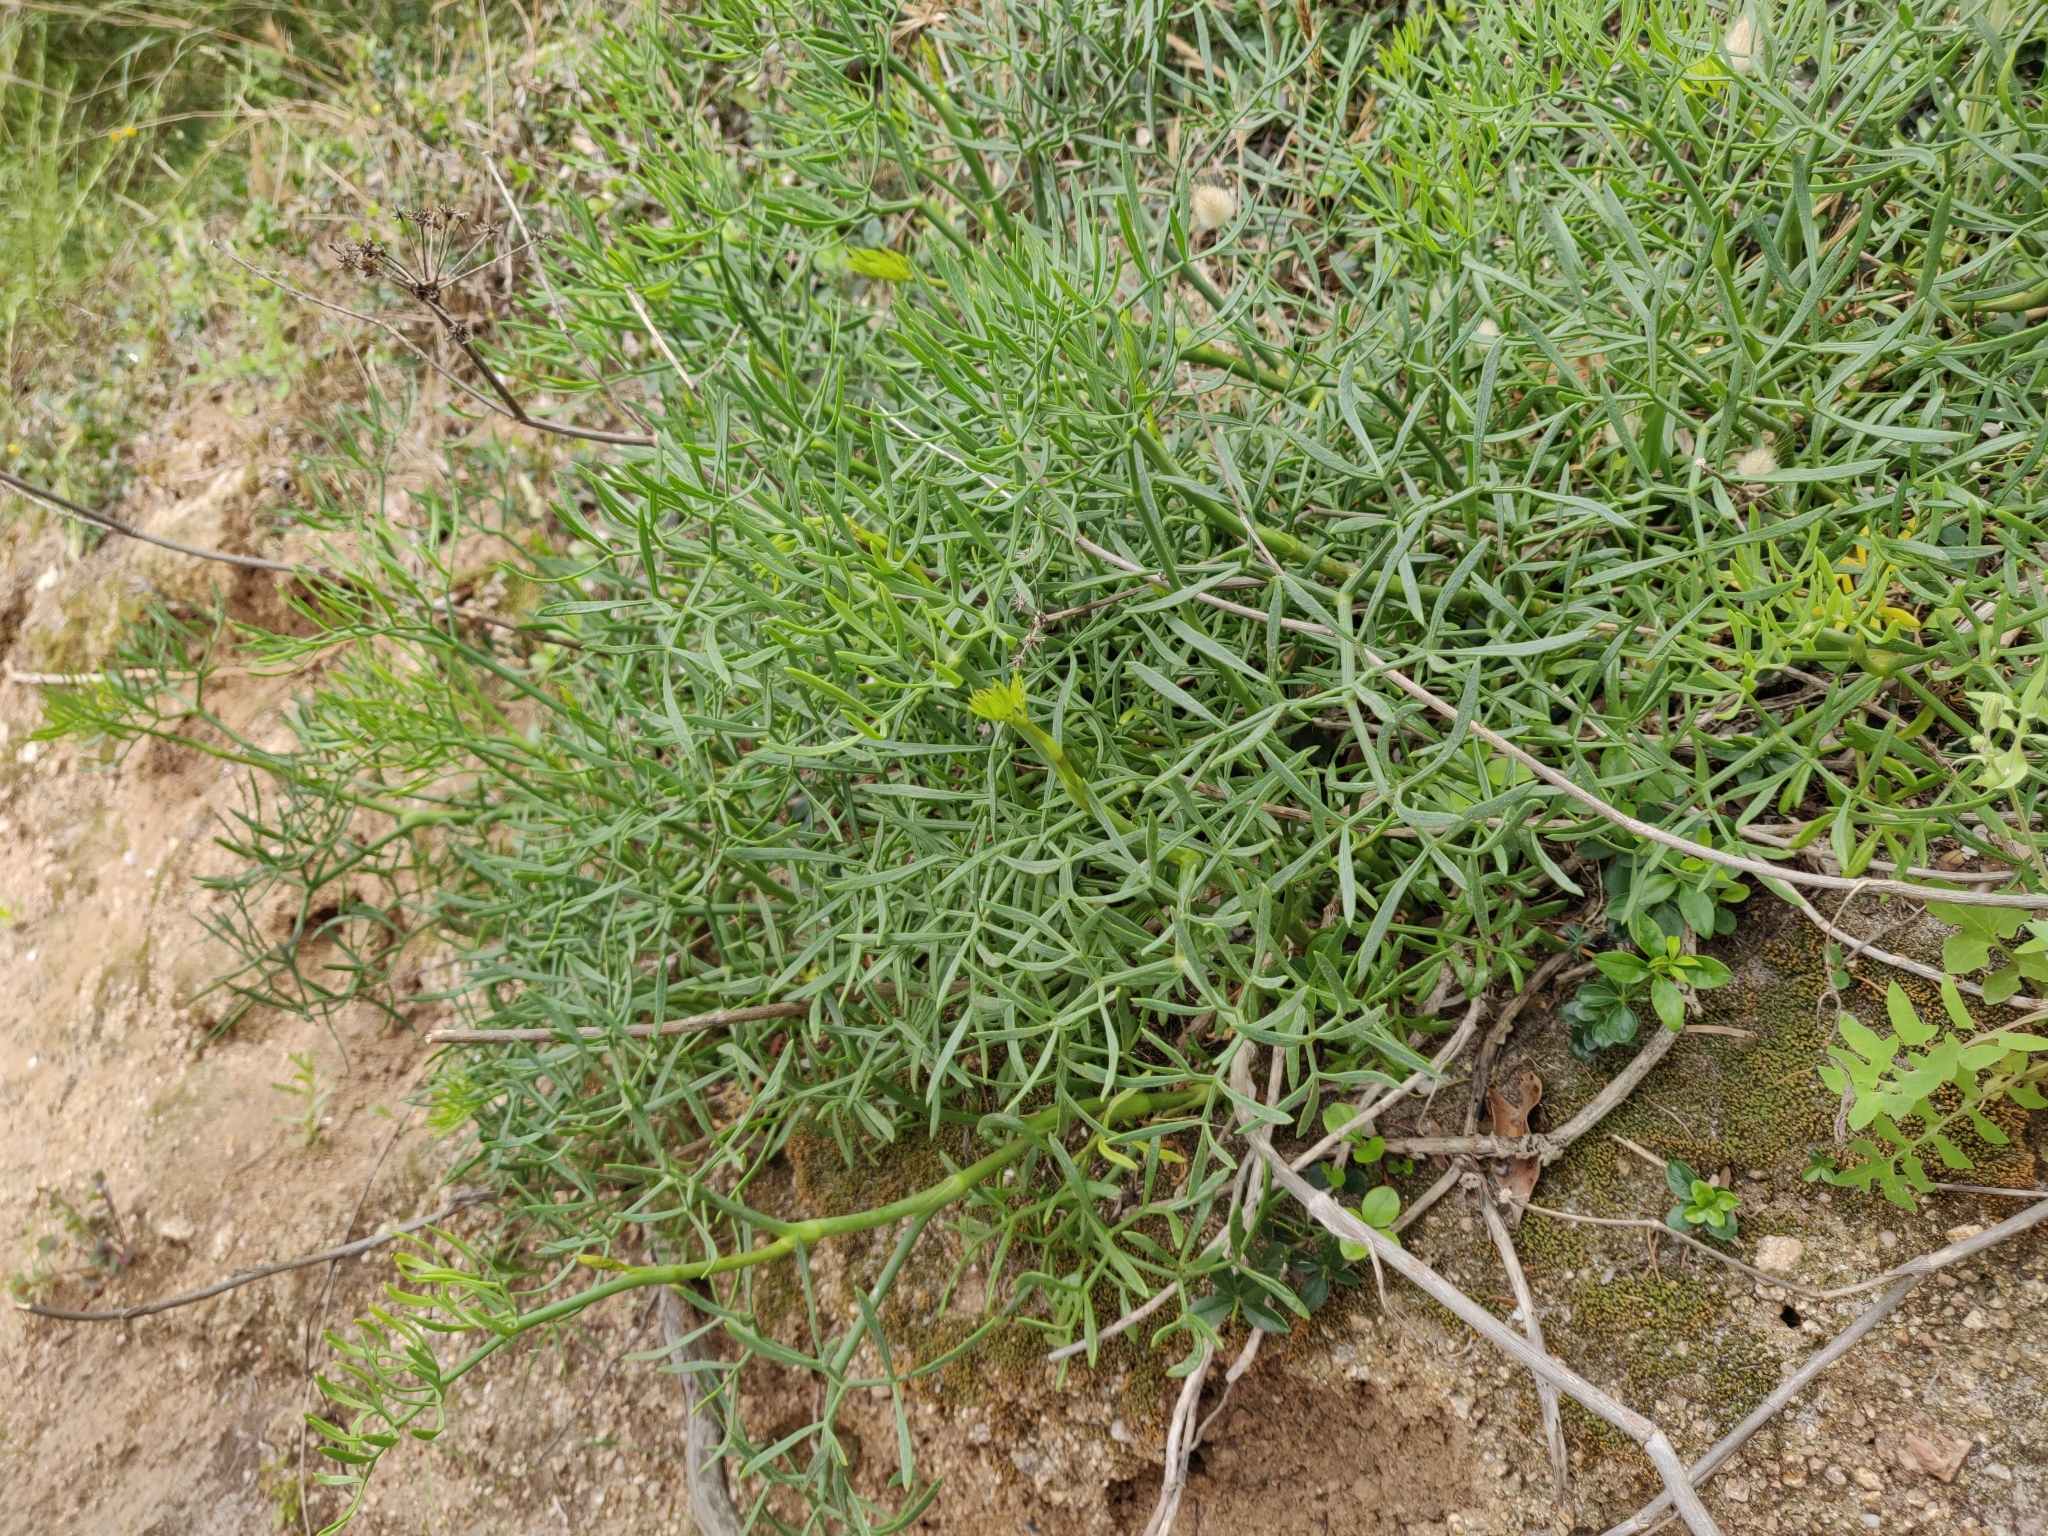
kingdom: Plantae
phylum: Tracheophyta
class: Magnoliopsida
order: Apiales
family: Apiaceae
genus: Crithmum
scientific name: Crithmum maritimum
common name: Rock samphire
